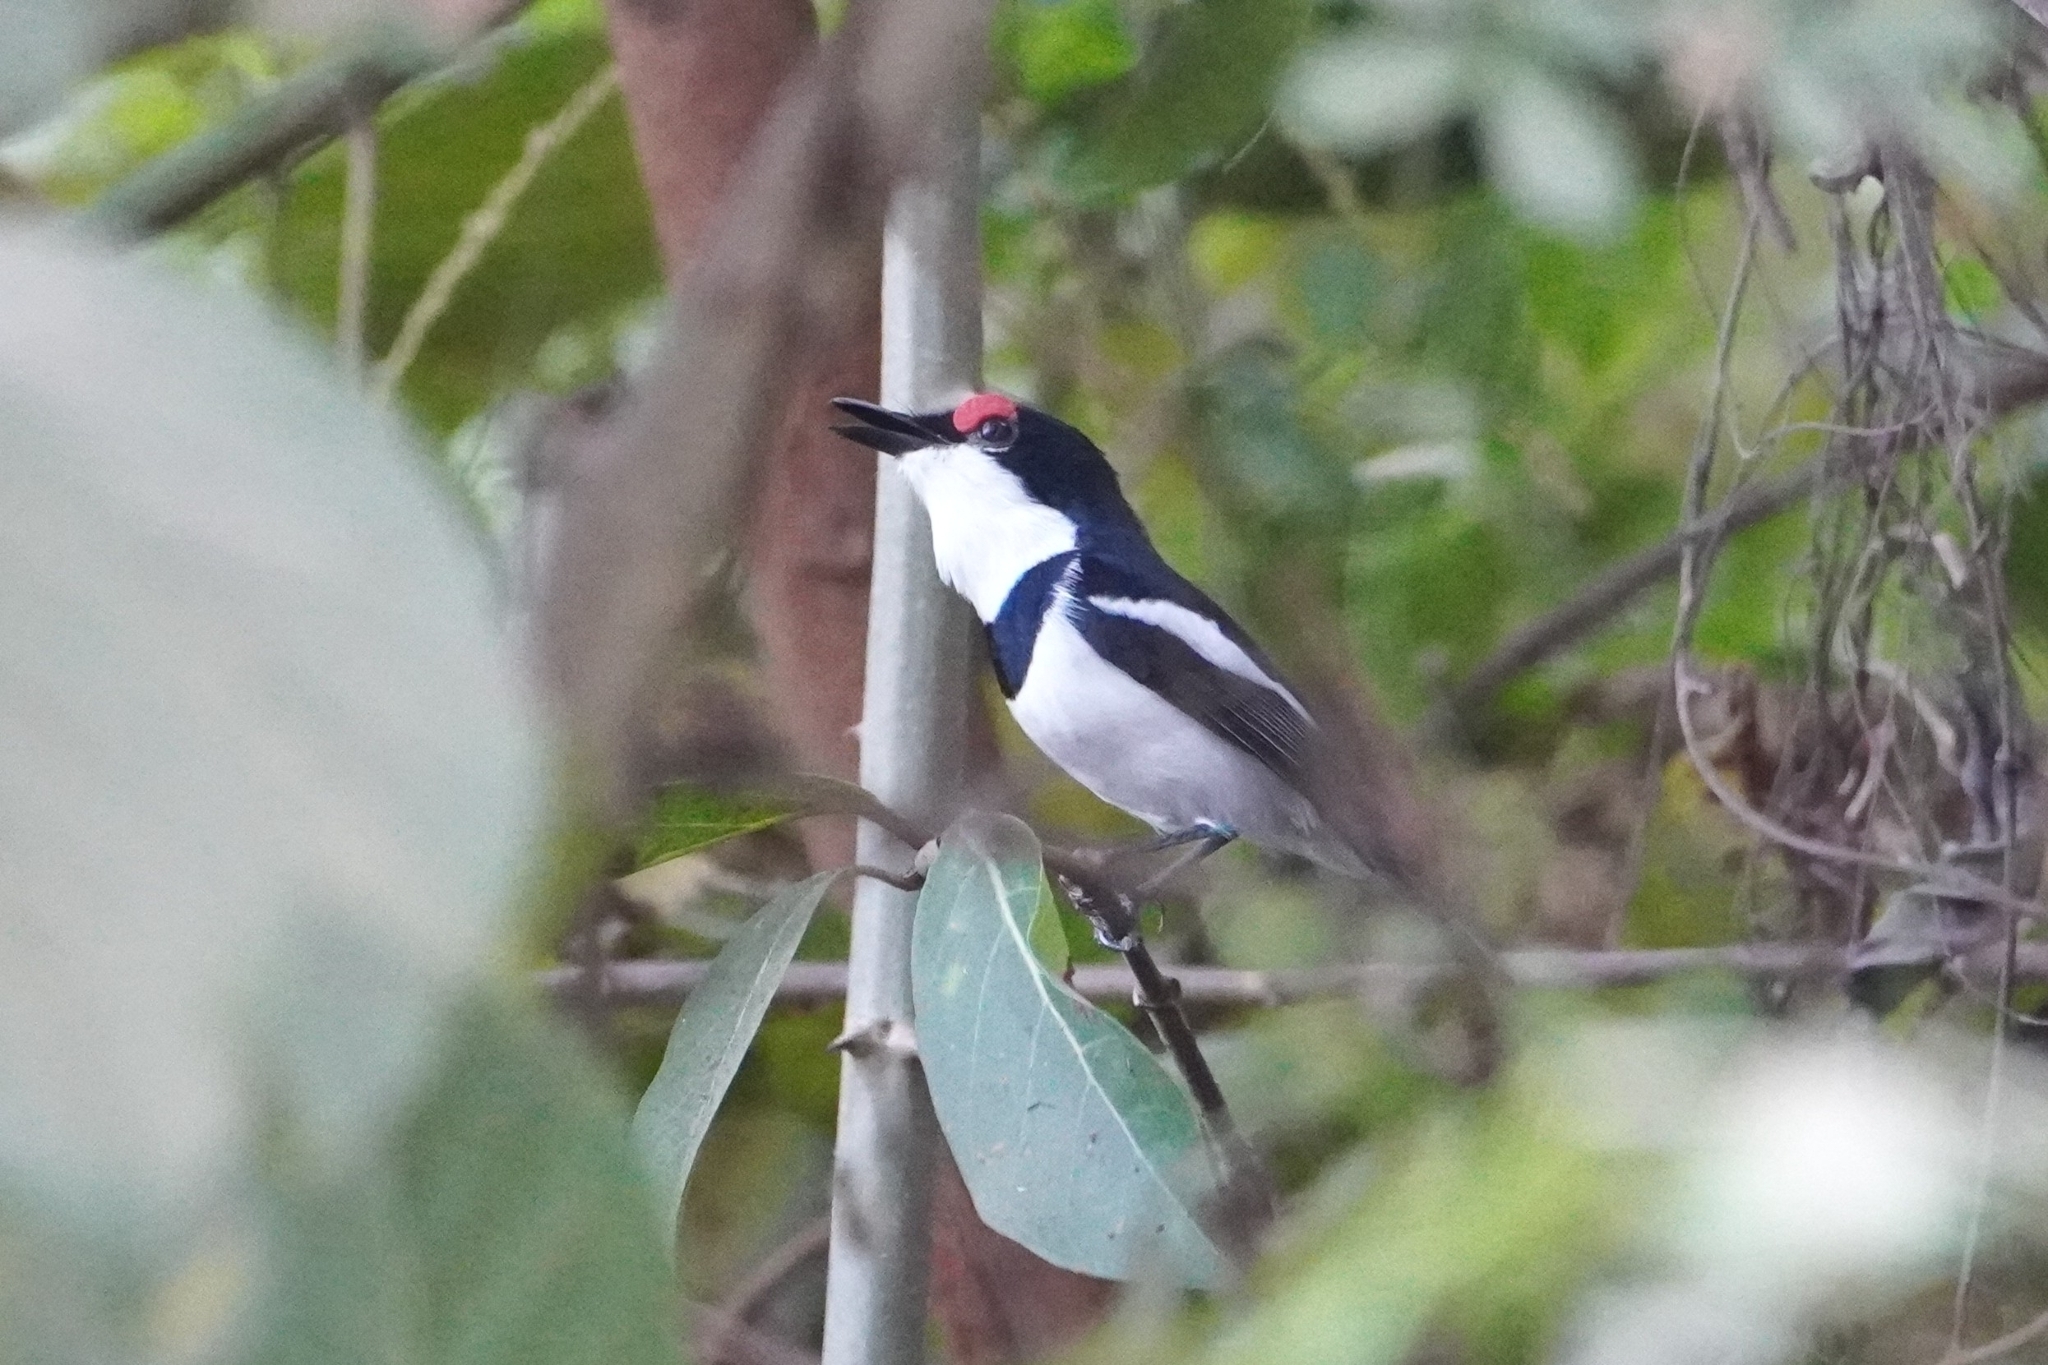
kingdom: Animalia
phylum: Chordata
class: Aves
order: Passeriformes
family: Platysteiridae
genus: Platysteira
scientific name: Platysteira cyanea
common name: Brown-throated wattle-eye
